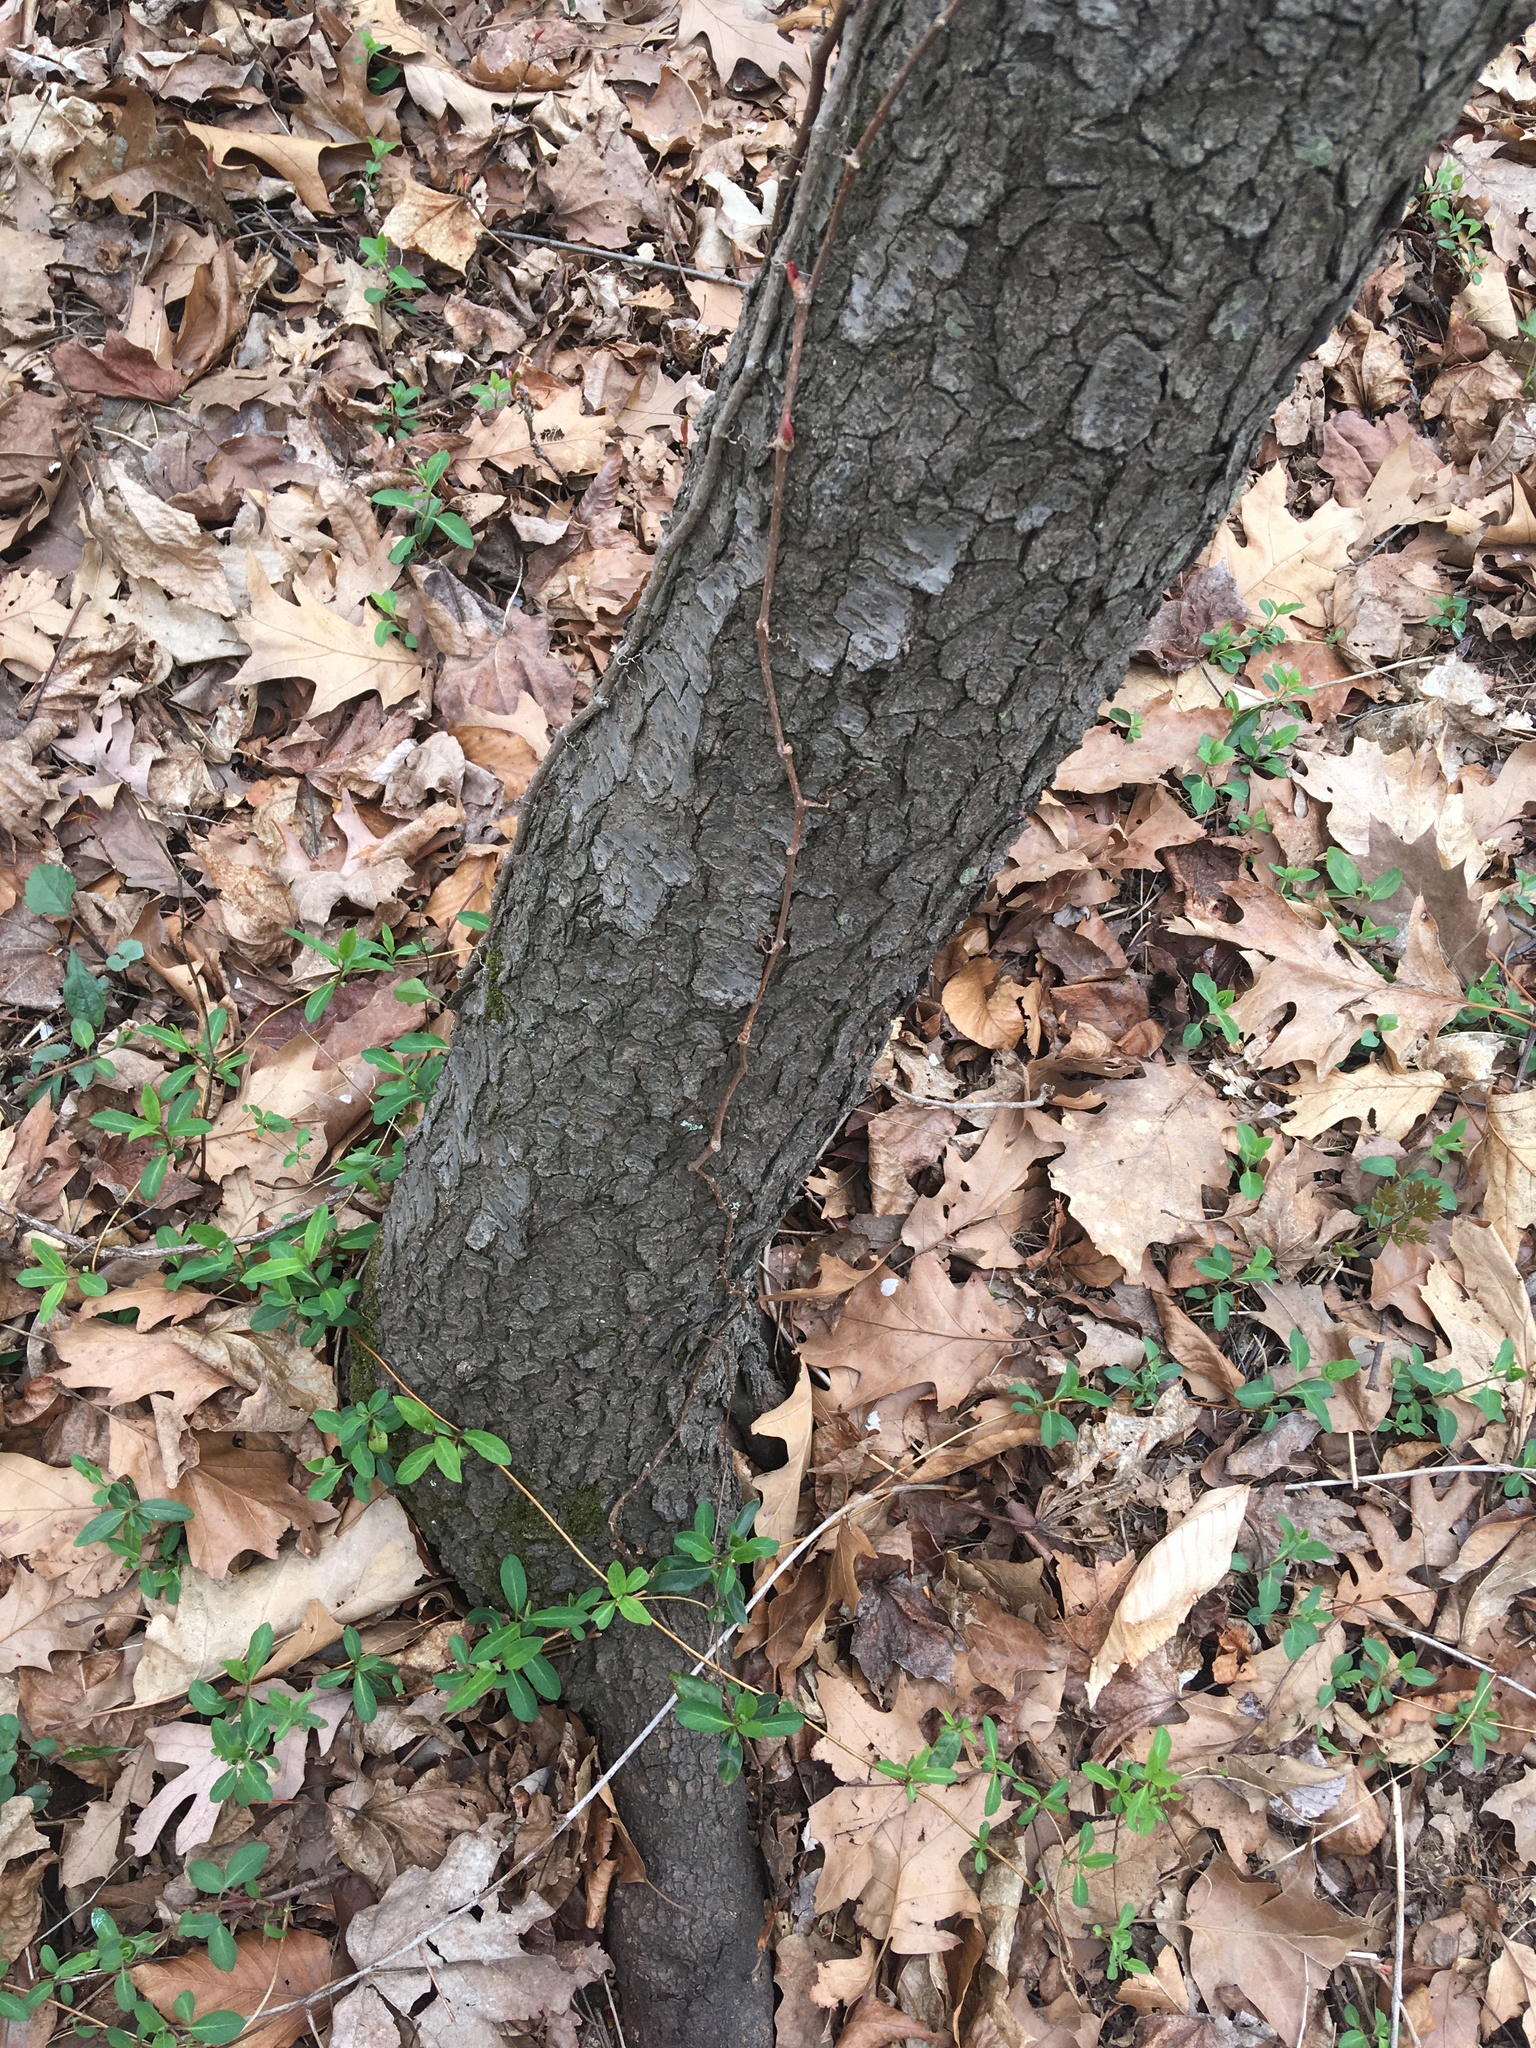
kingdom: Plantae
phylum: Tracheophyta
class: Magnoliopsida
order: Rosales
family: Rosaceae
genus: Prunus
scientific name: Prunus serotina
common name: Black cherry
